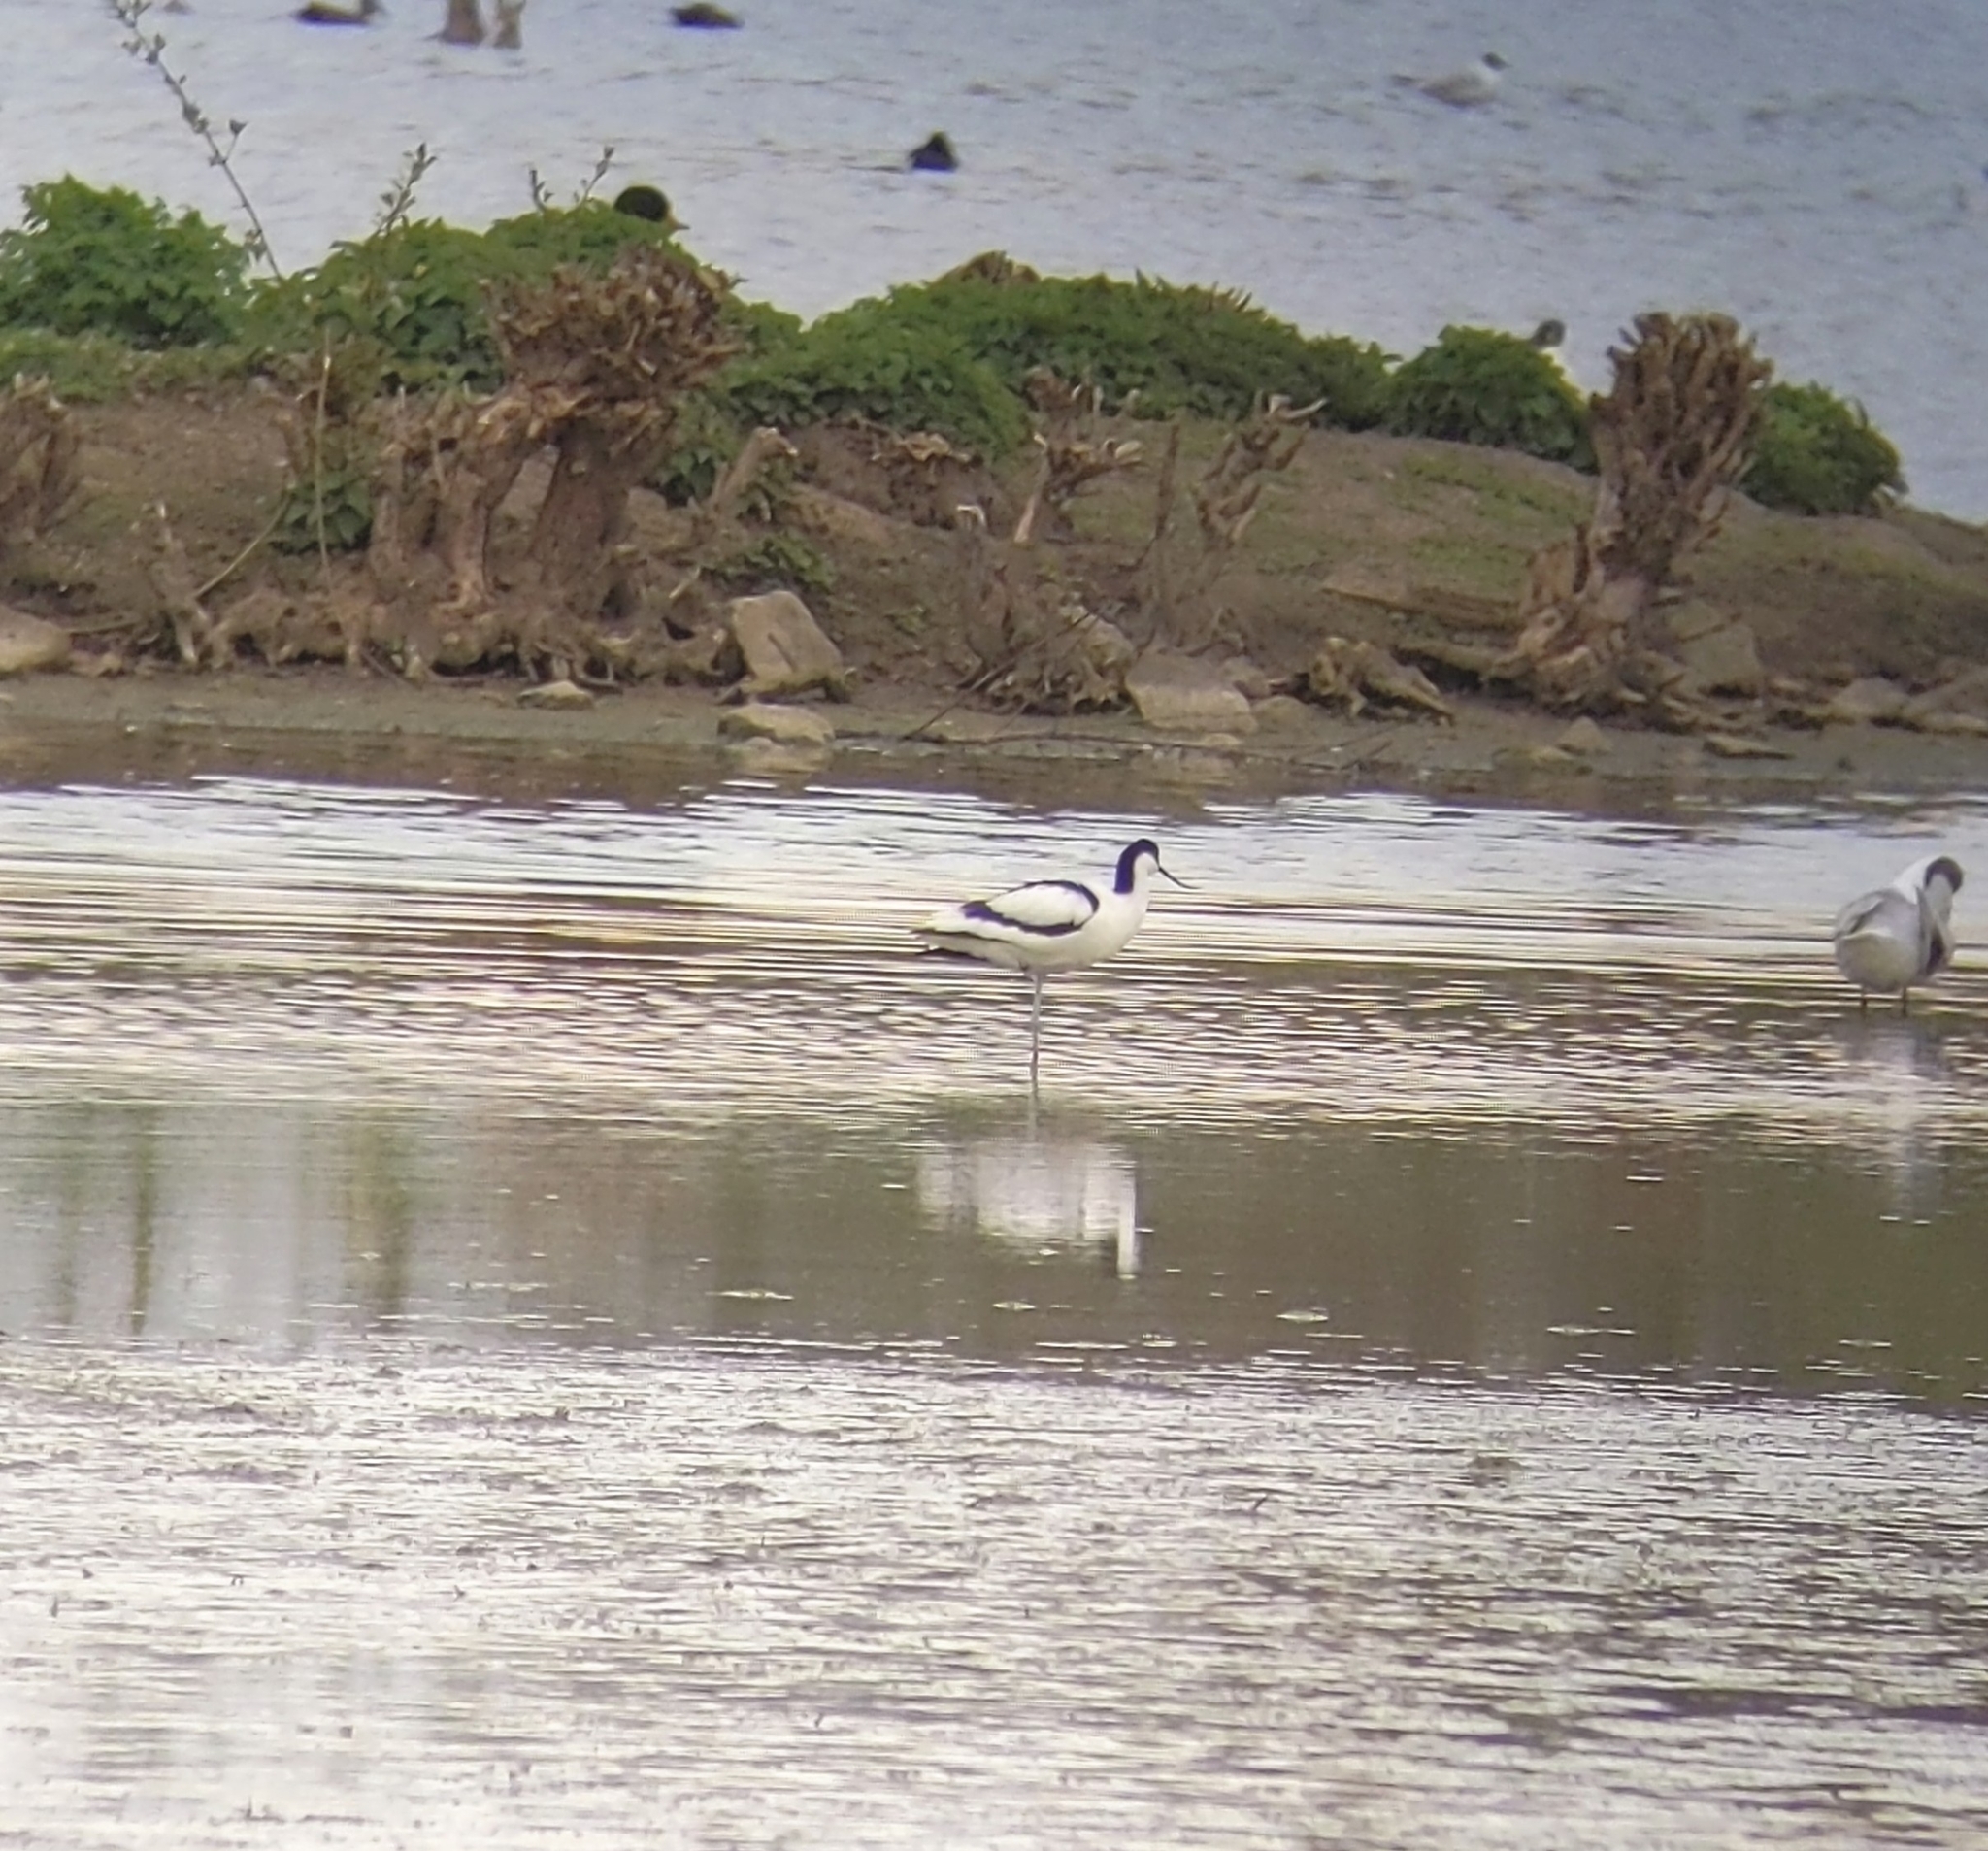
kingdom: Animalia
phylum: Chordata
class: Aves
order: Charadriiformes
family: Recurvirostridae
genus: Recurvirostra
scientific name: Recurvirostra avosetta
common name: Pied avocet
